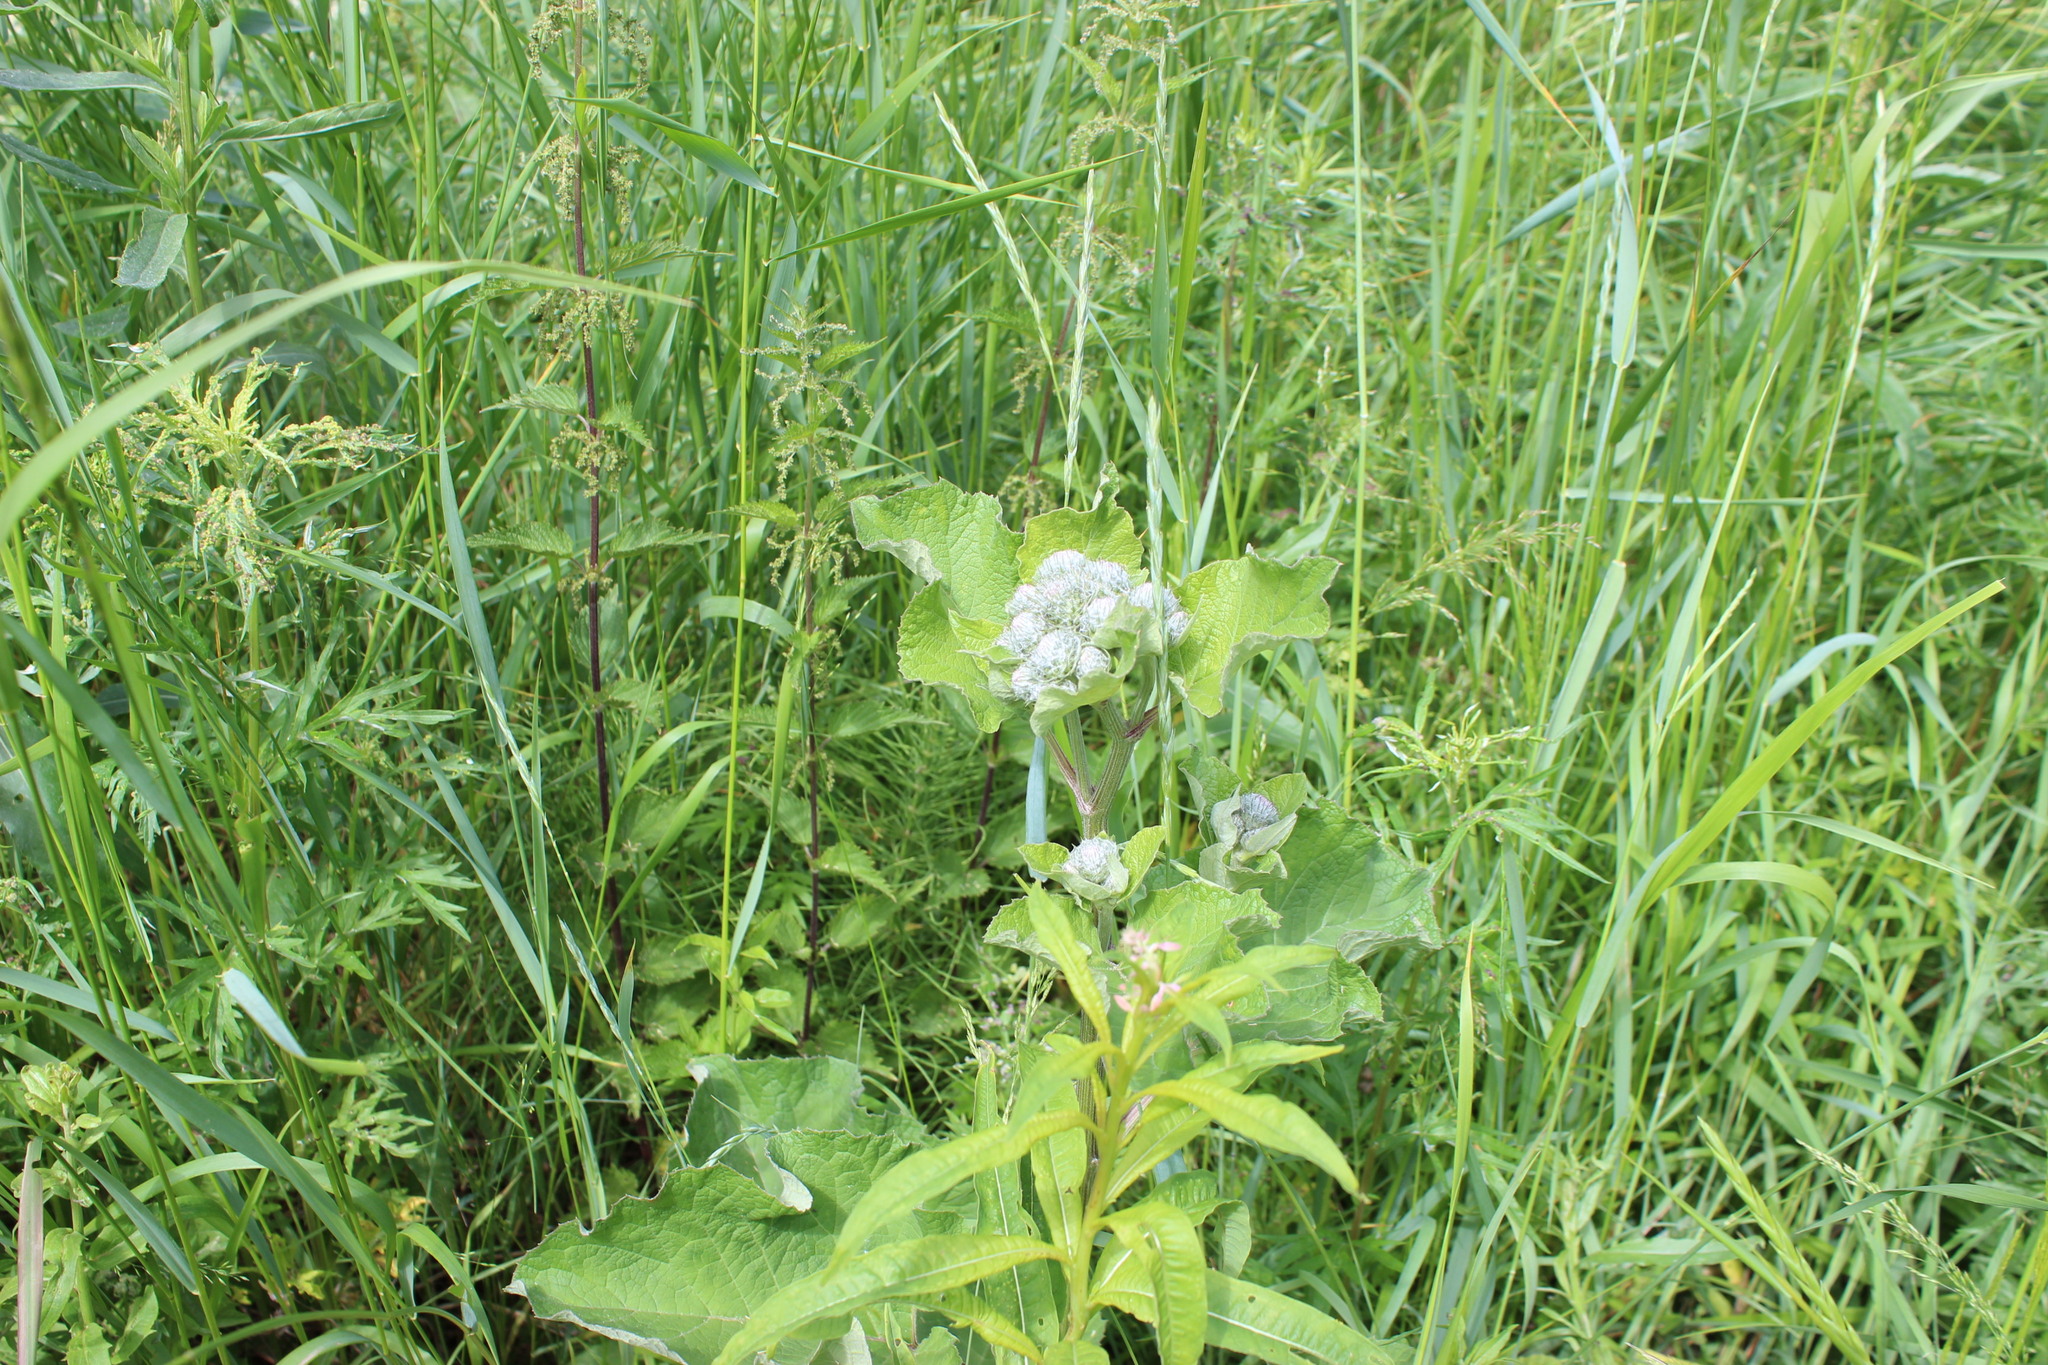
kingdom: Plantae
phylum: Tracheophyta
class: Magnoliopsida
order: Asterales
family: Asteraceae
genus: Arctium
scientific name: Arctium tomentosum
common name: Woolly burdock
